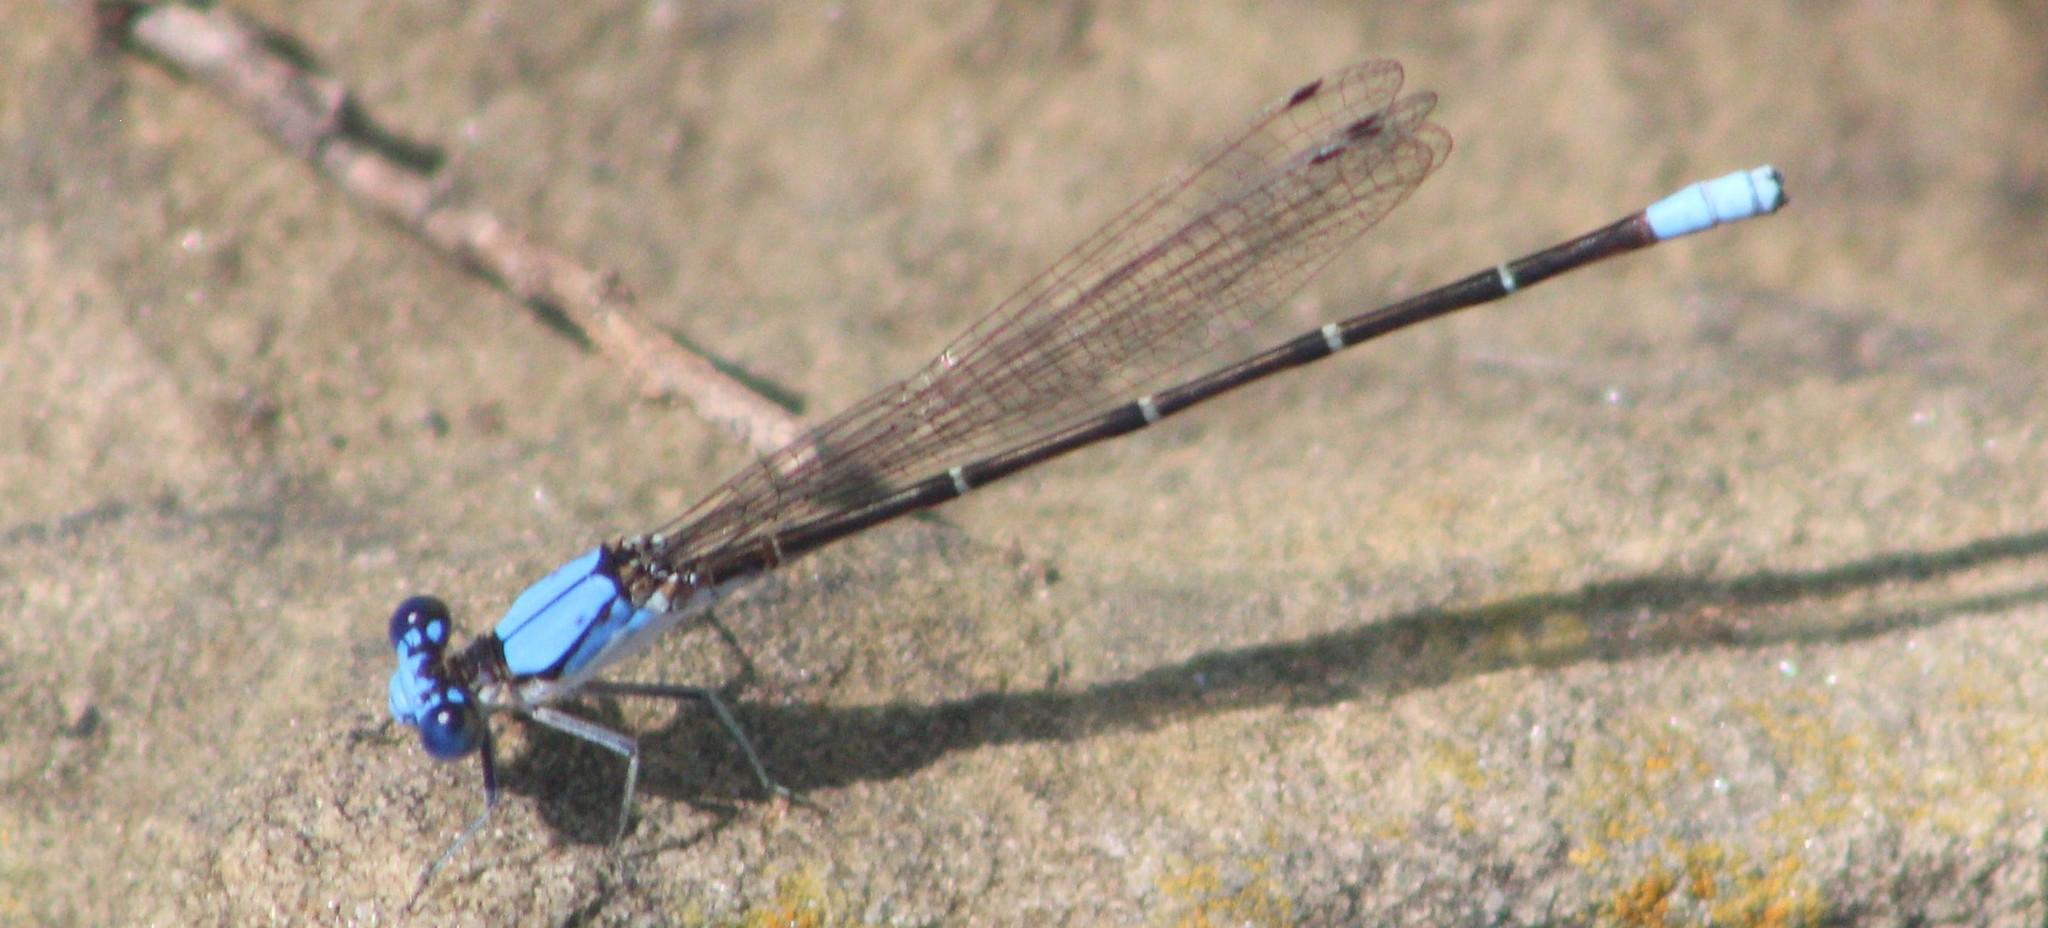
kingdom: Animalia
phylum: Arthropoda
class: Insecta
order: Odonata
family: Coenagrionidae
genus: Argia
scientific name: Argia apicalis
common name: Blue-fronted dancer
